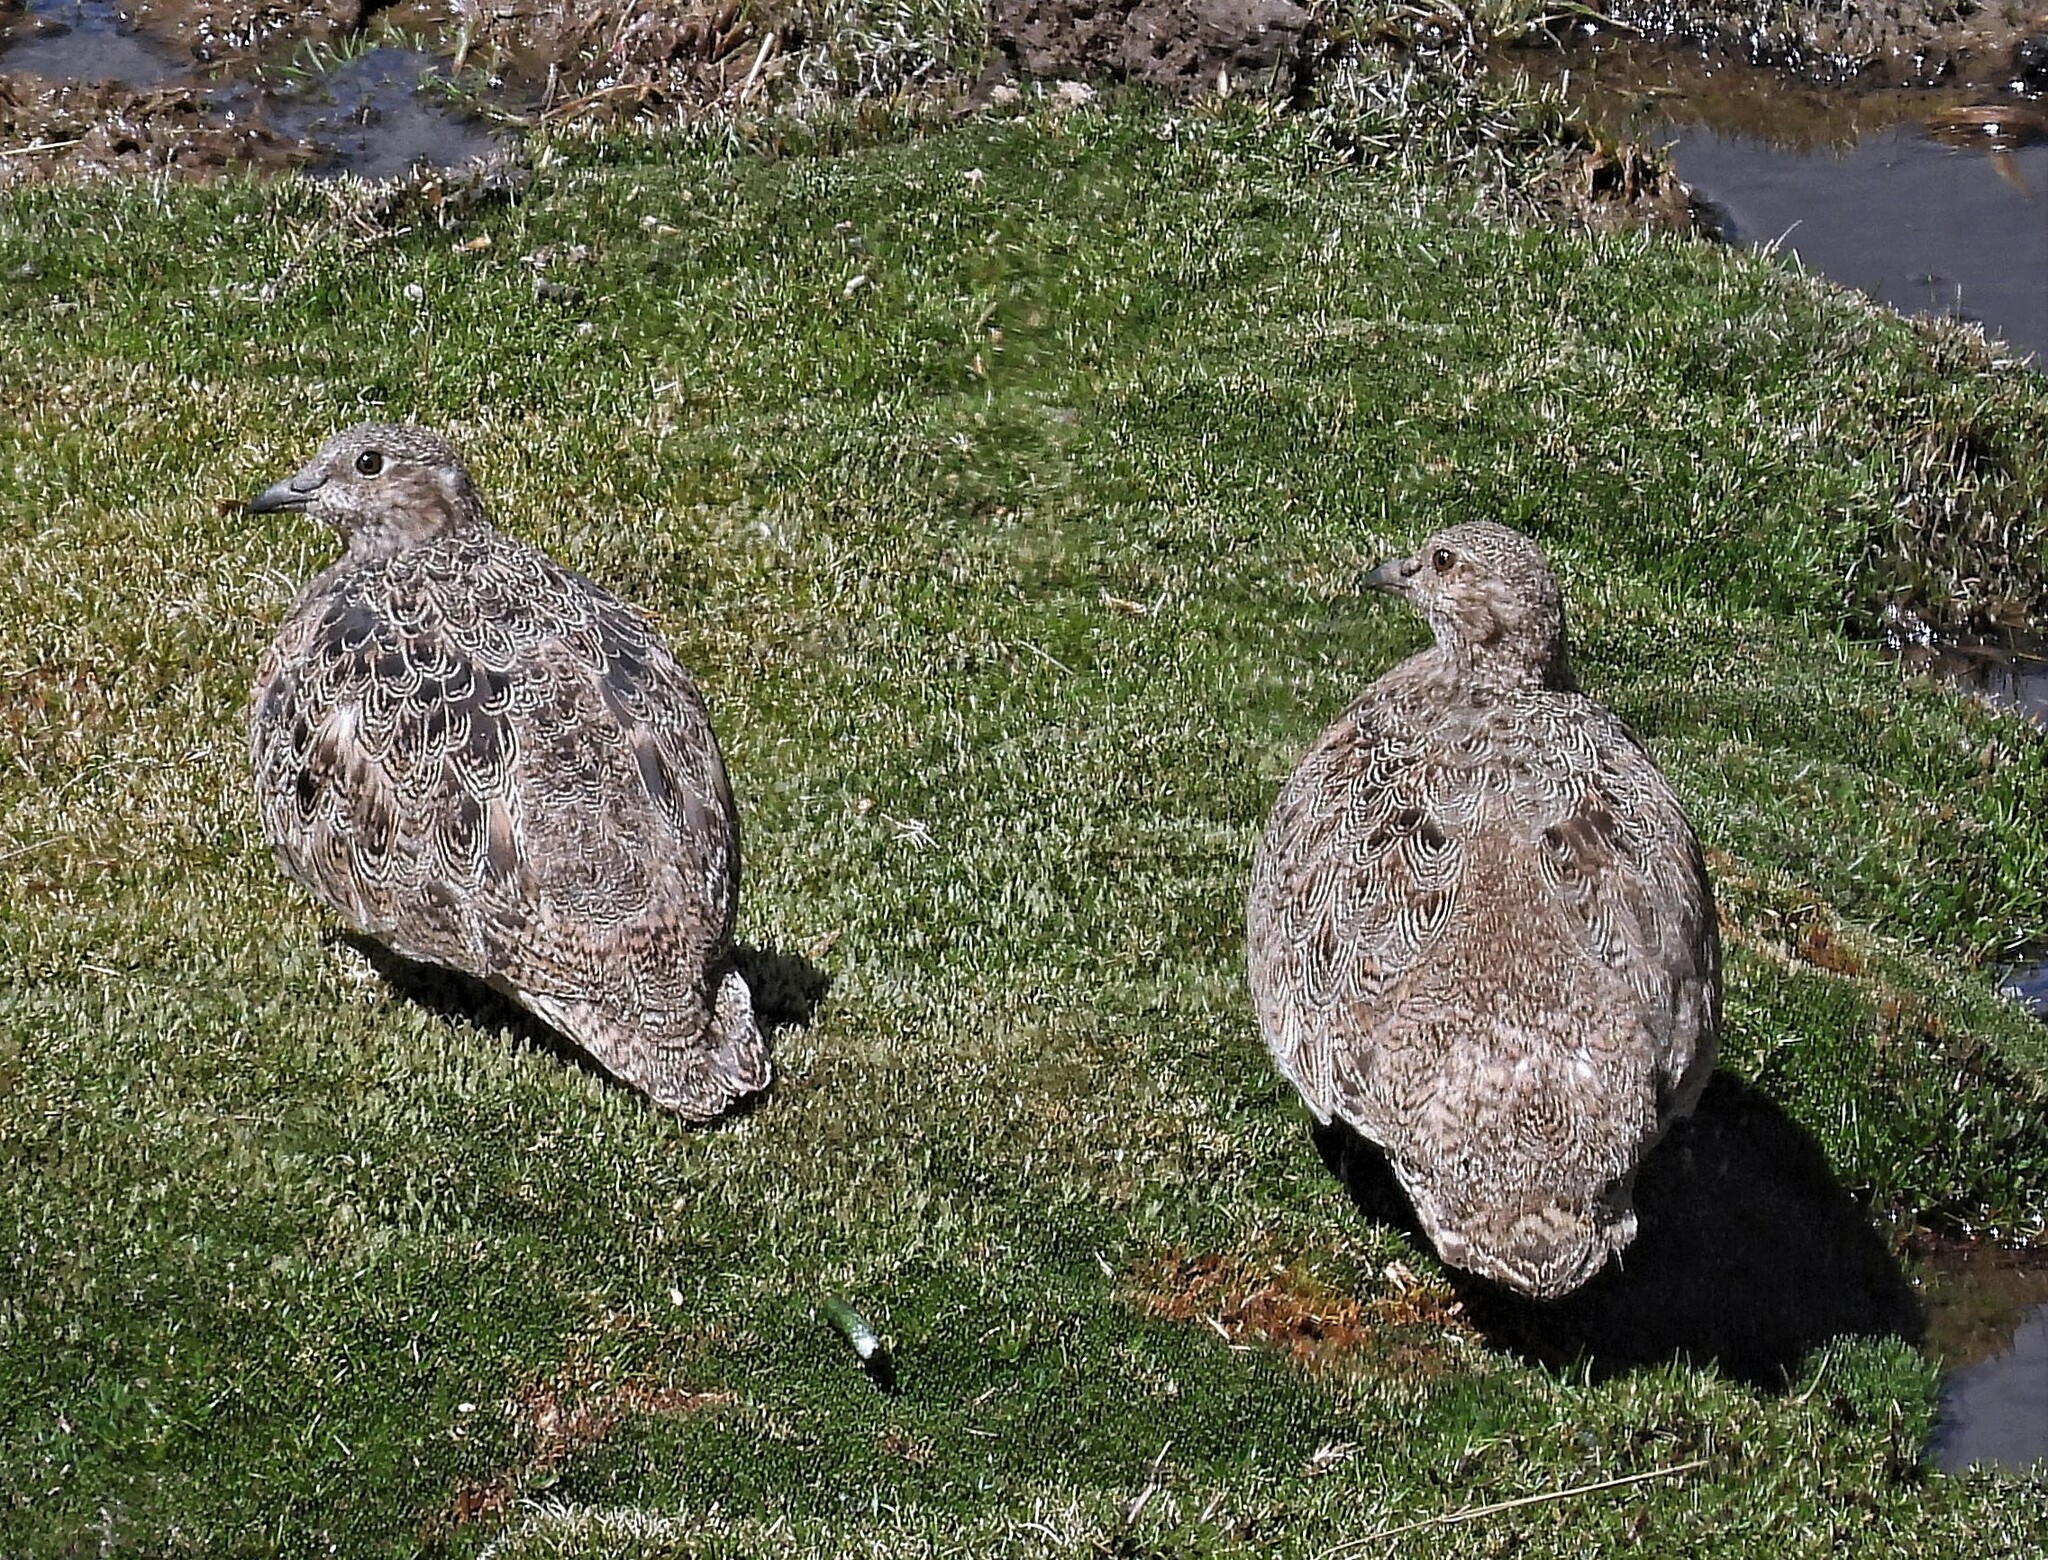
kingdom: Animalia
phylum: Chordata
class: Aves
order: Charadriiformes
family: Thinocoridae
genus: Attagis
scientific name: Attagis gayi
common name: Rufous-bellied seedsnipe
